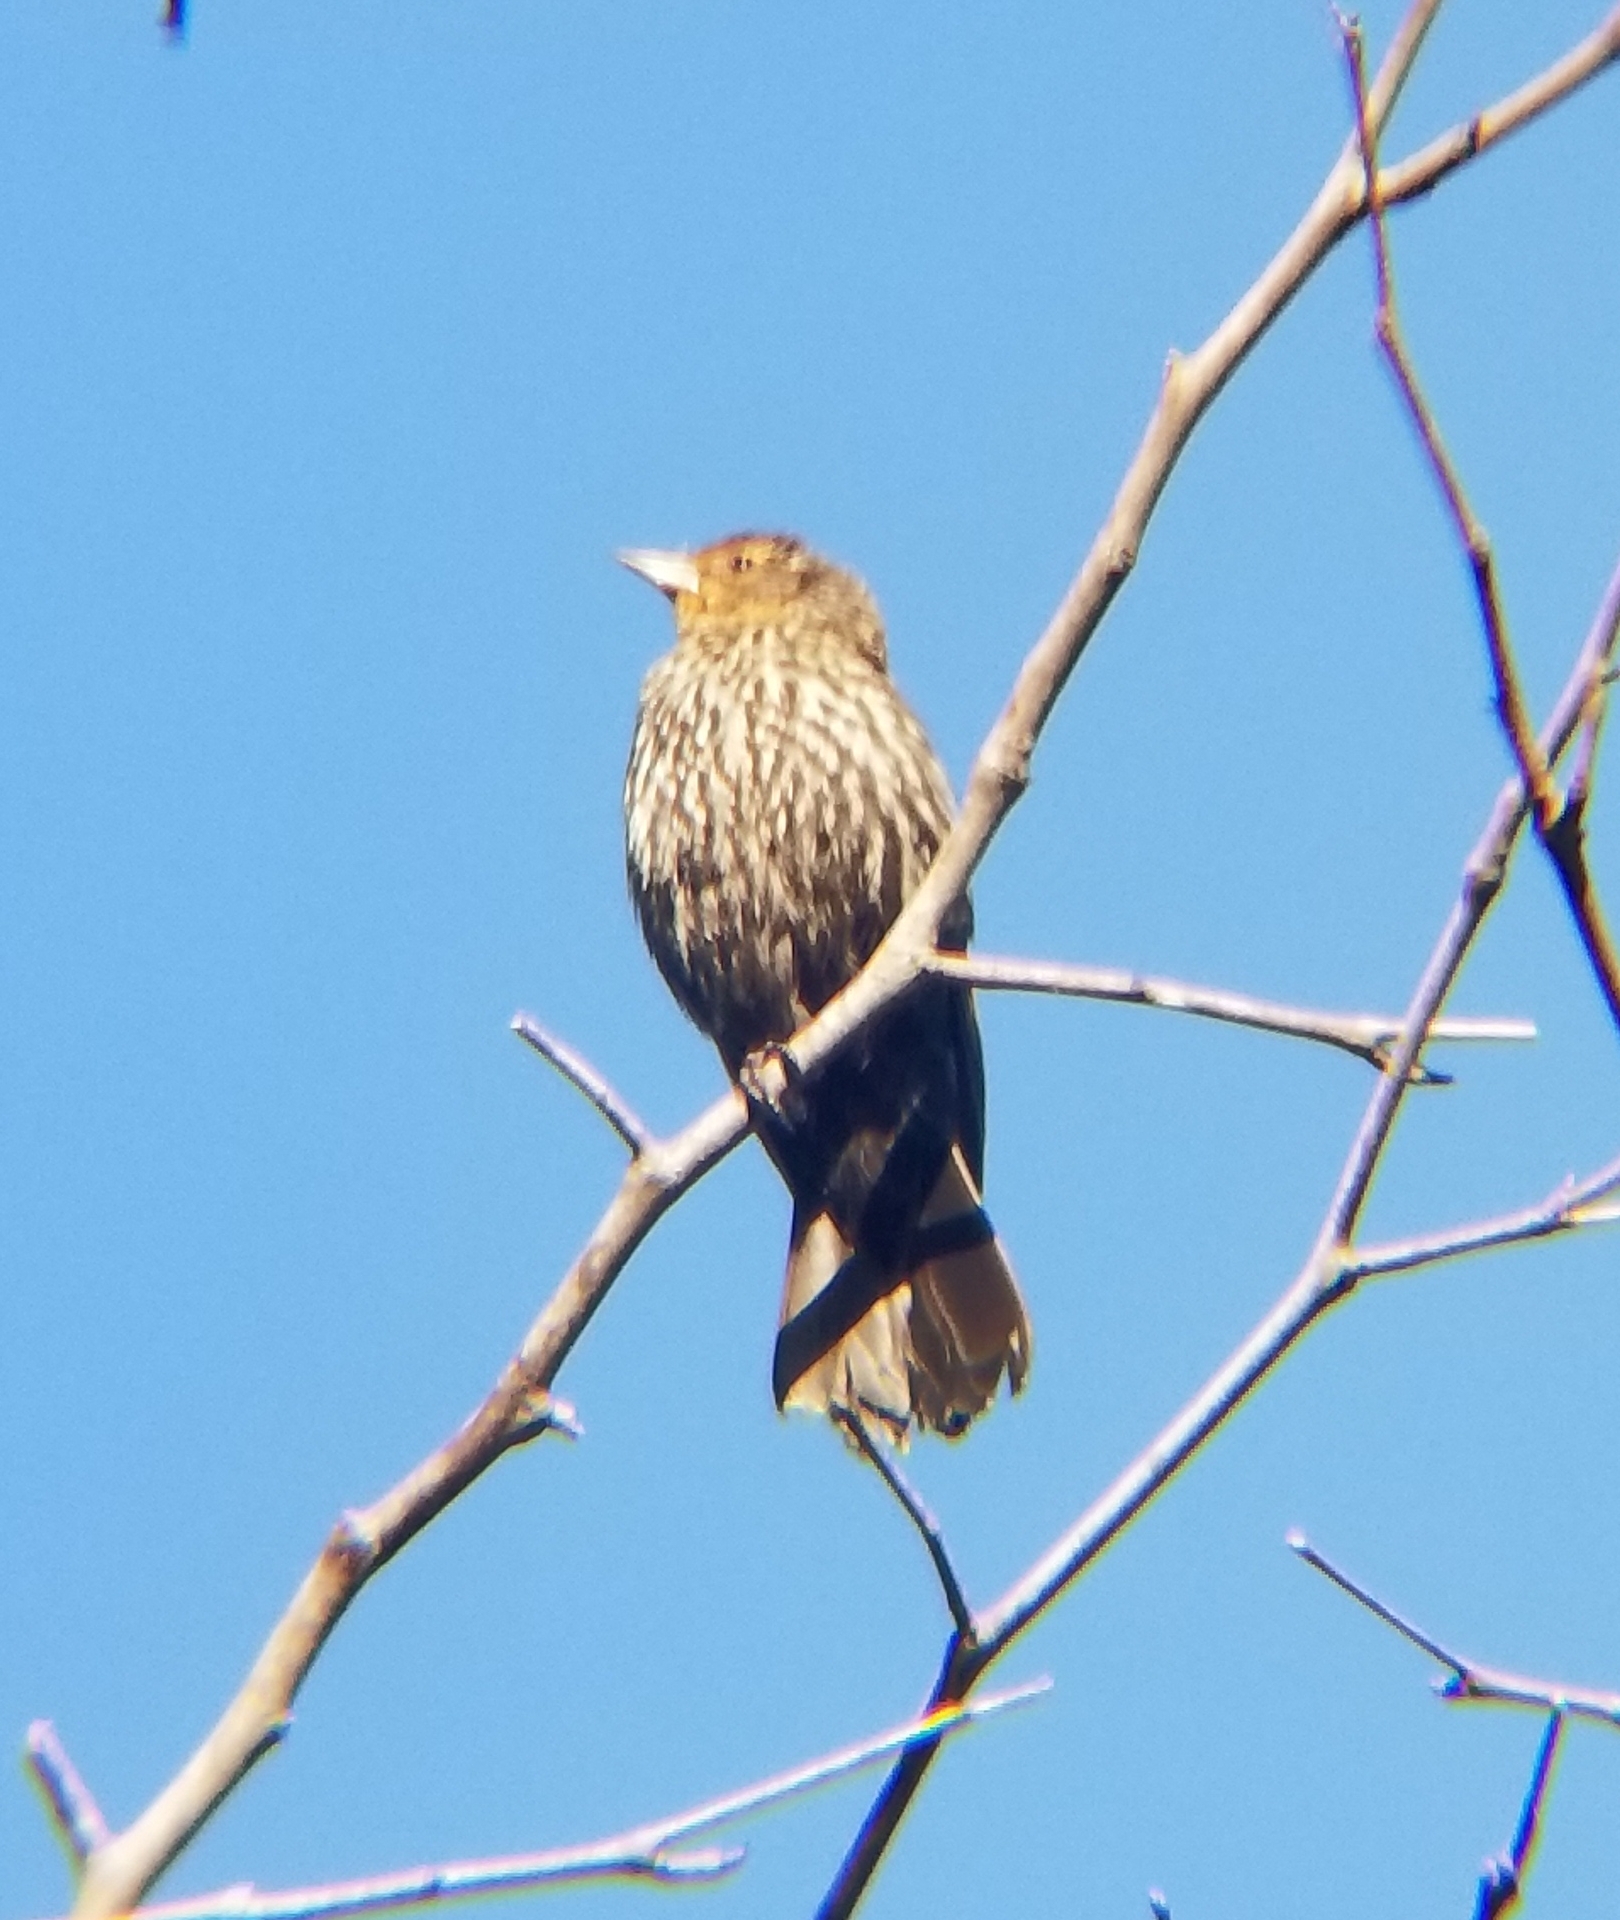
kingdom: Animalia
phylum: Chordata
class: Aves
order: Passeriformes
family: Icteridae
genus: Agelaius
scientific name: Agelaius phoeniceus
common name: Red-winged blackbird
